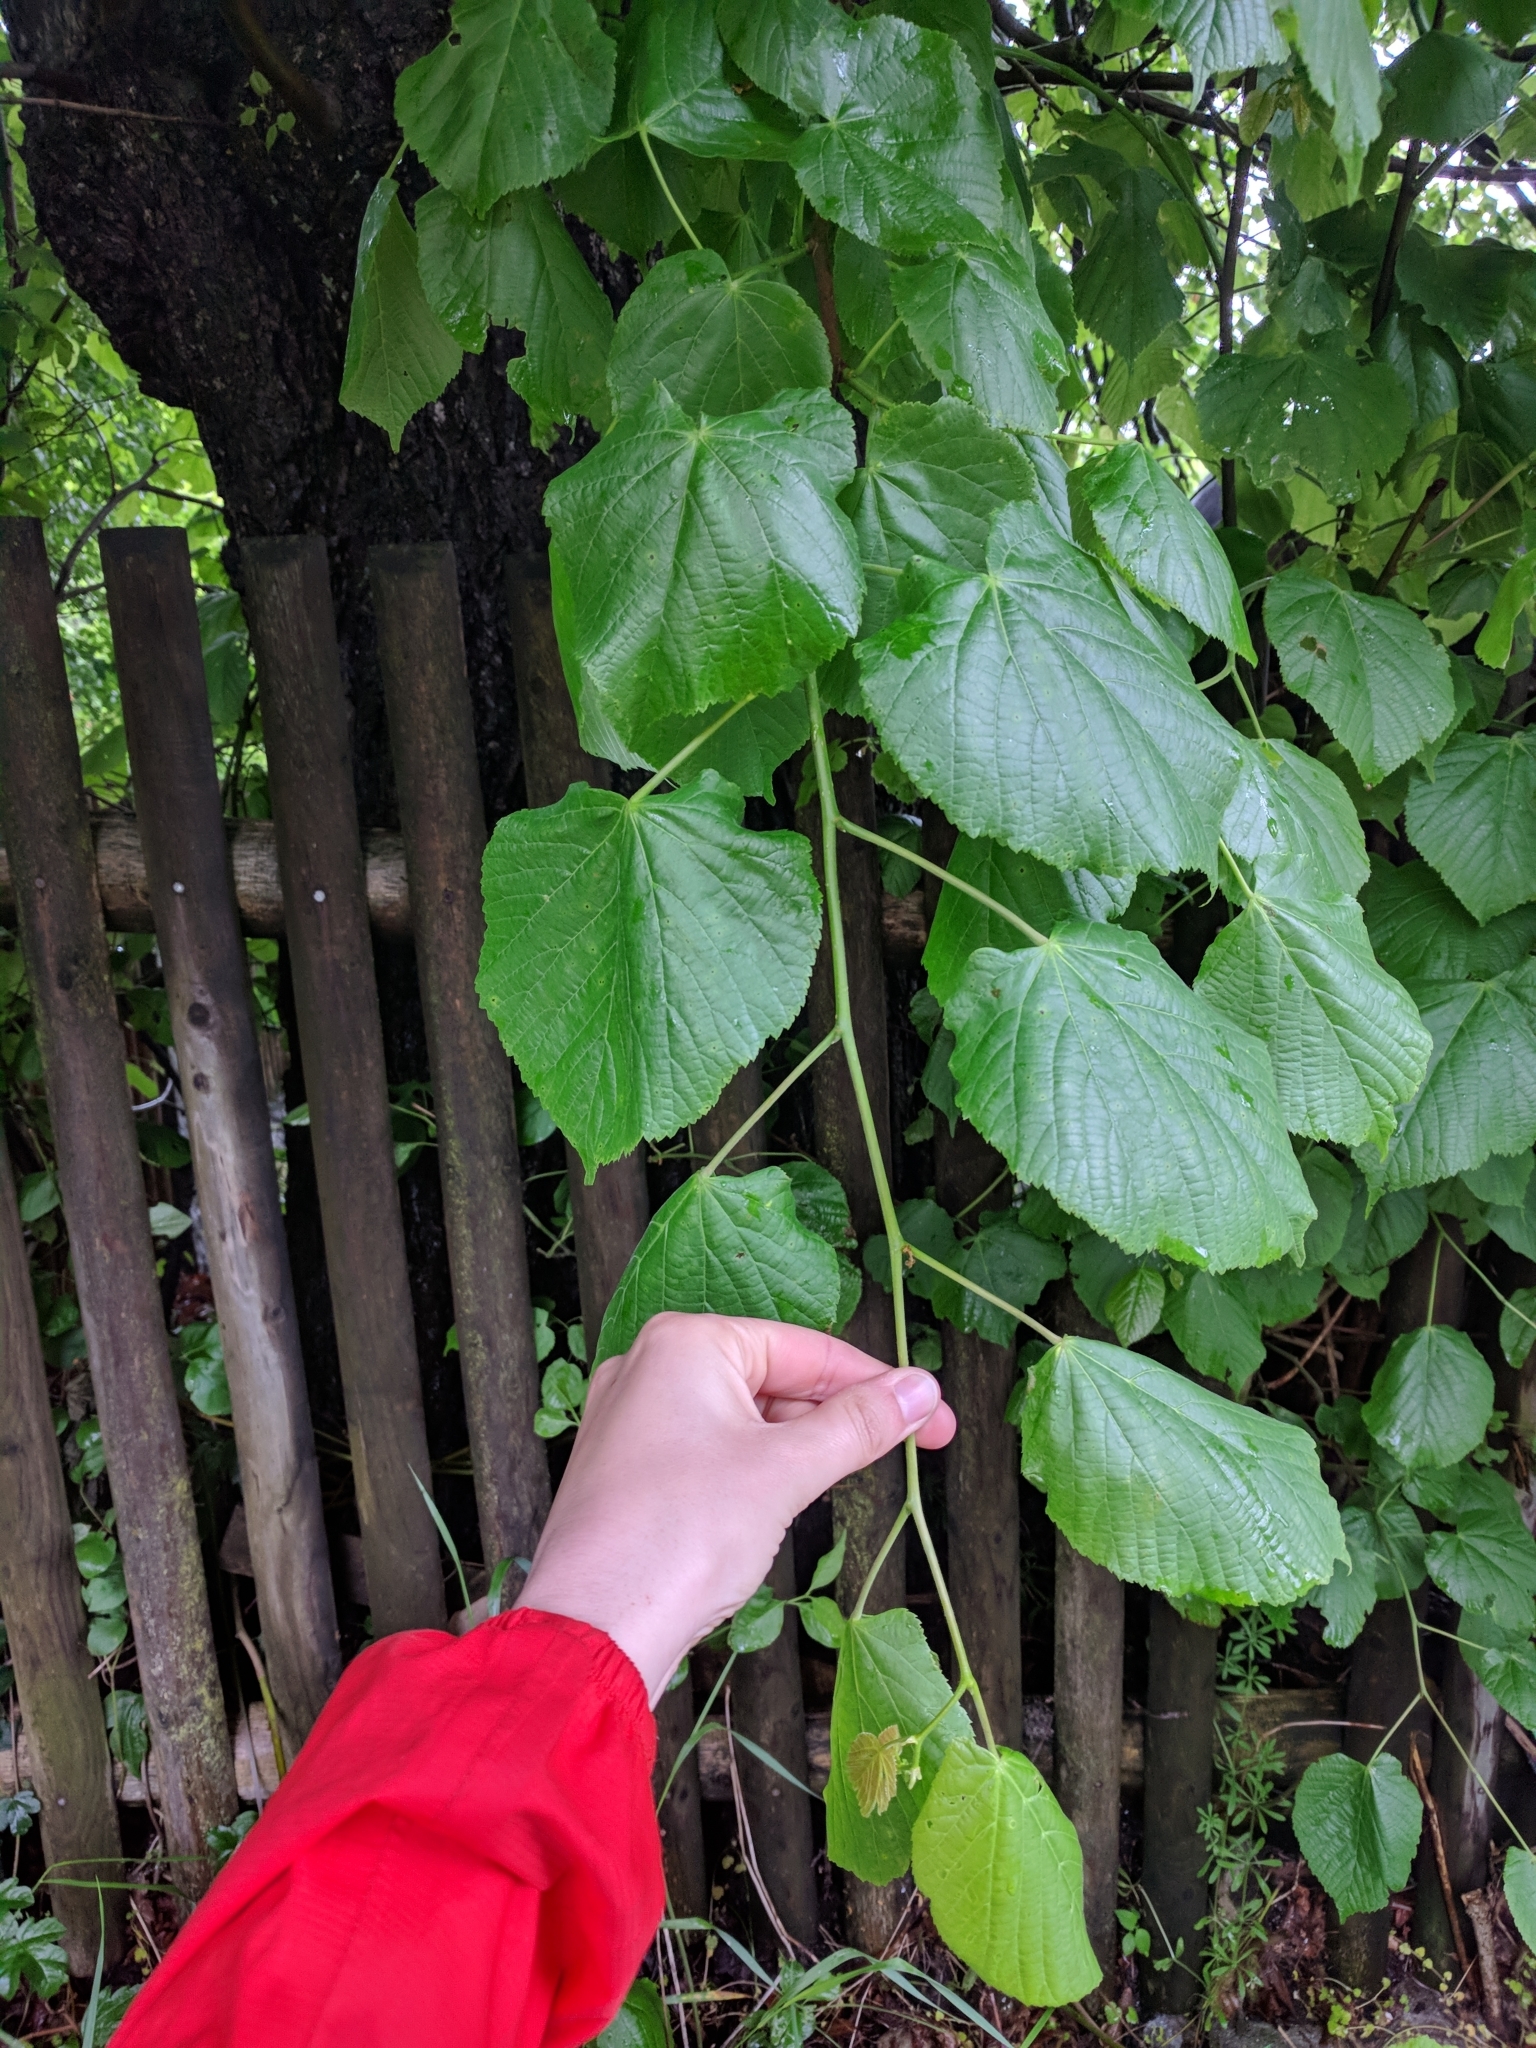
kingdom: Plantae
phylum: Tracheophyta
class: Magnoliopsida
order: Malvales
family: Malvaceae
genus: Tilia
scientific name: Tilia platyphyllos
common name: Large-leaved lime
